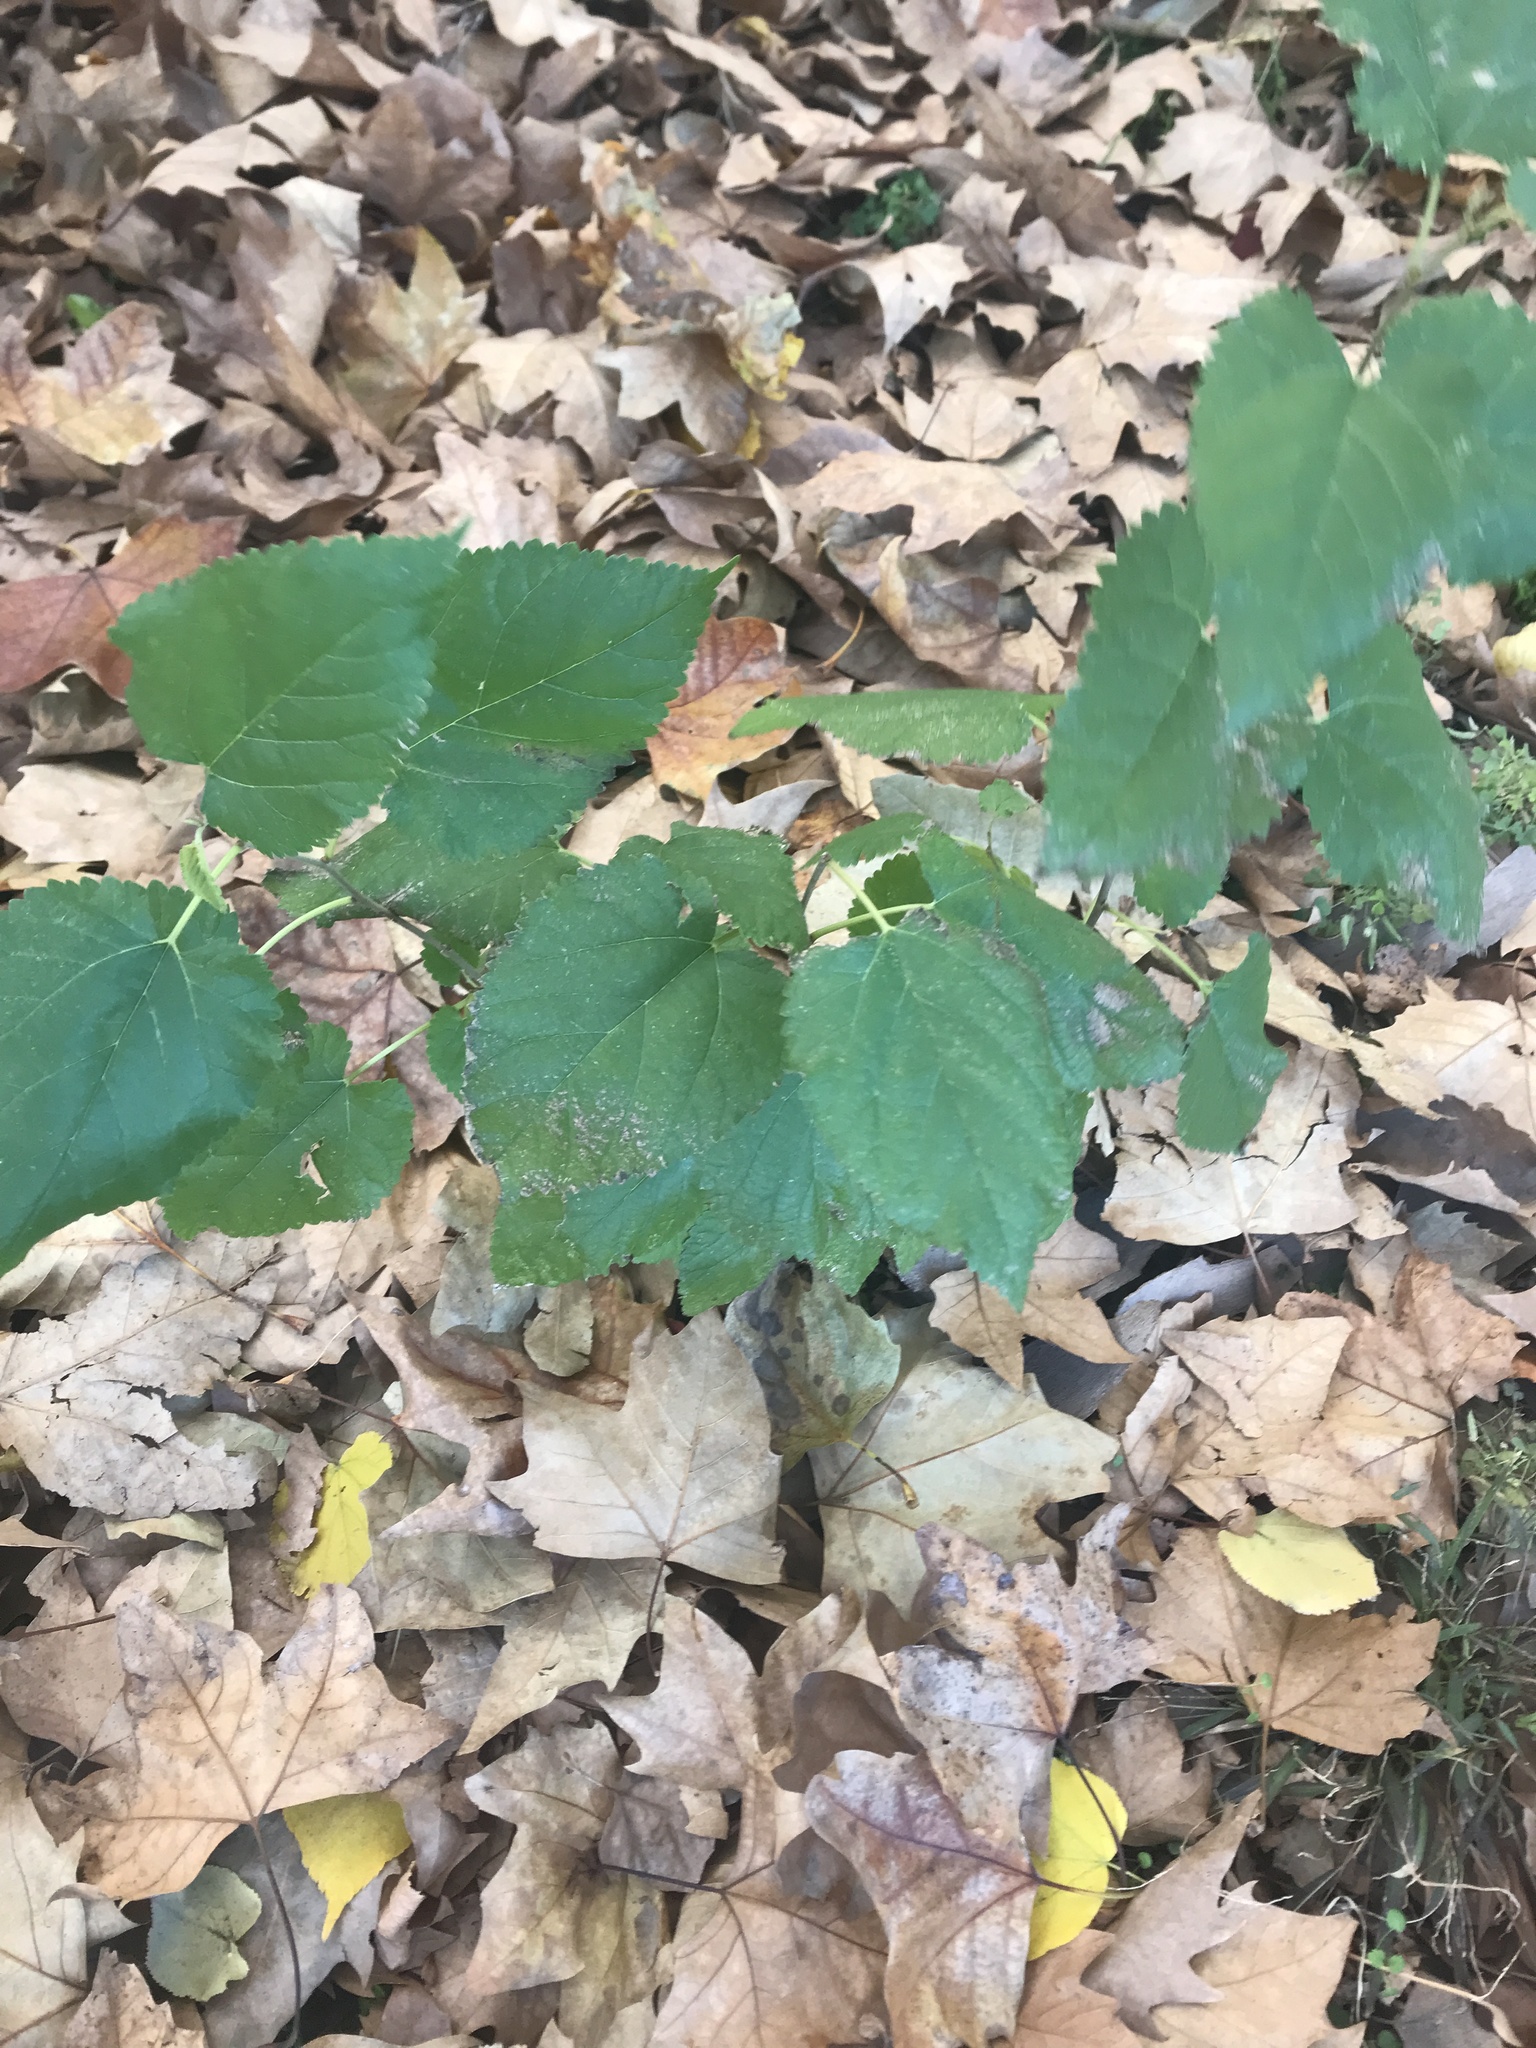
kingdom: Plantae
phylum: Tracheophyta
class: Magnoliopsida
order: Rosales
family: Moraceae
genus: Morus
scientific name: Morus alba
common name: White mulberry
